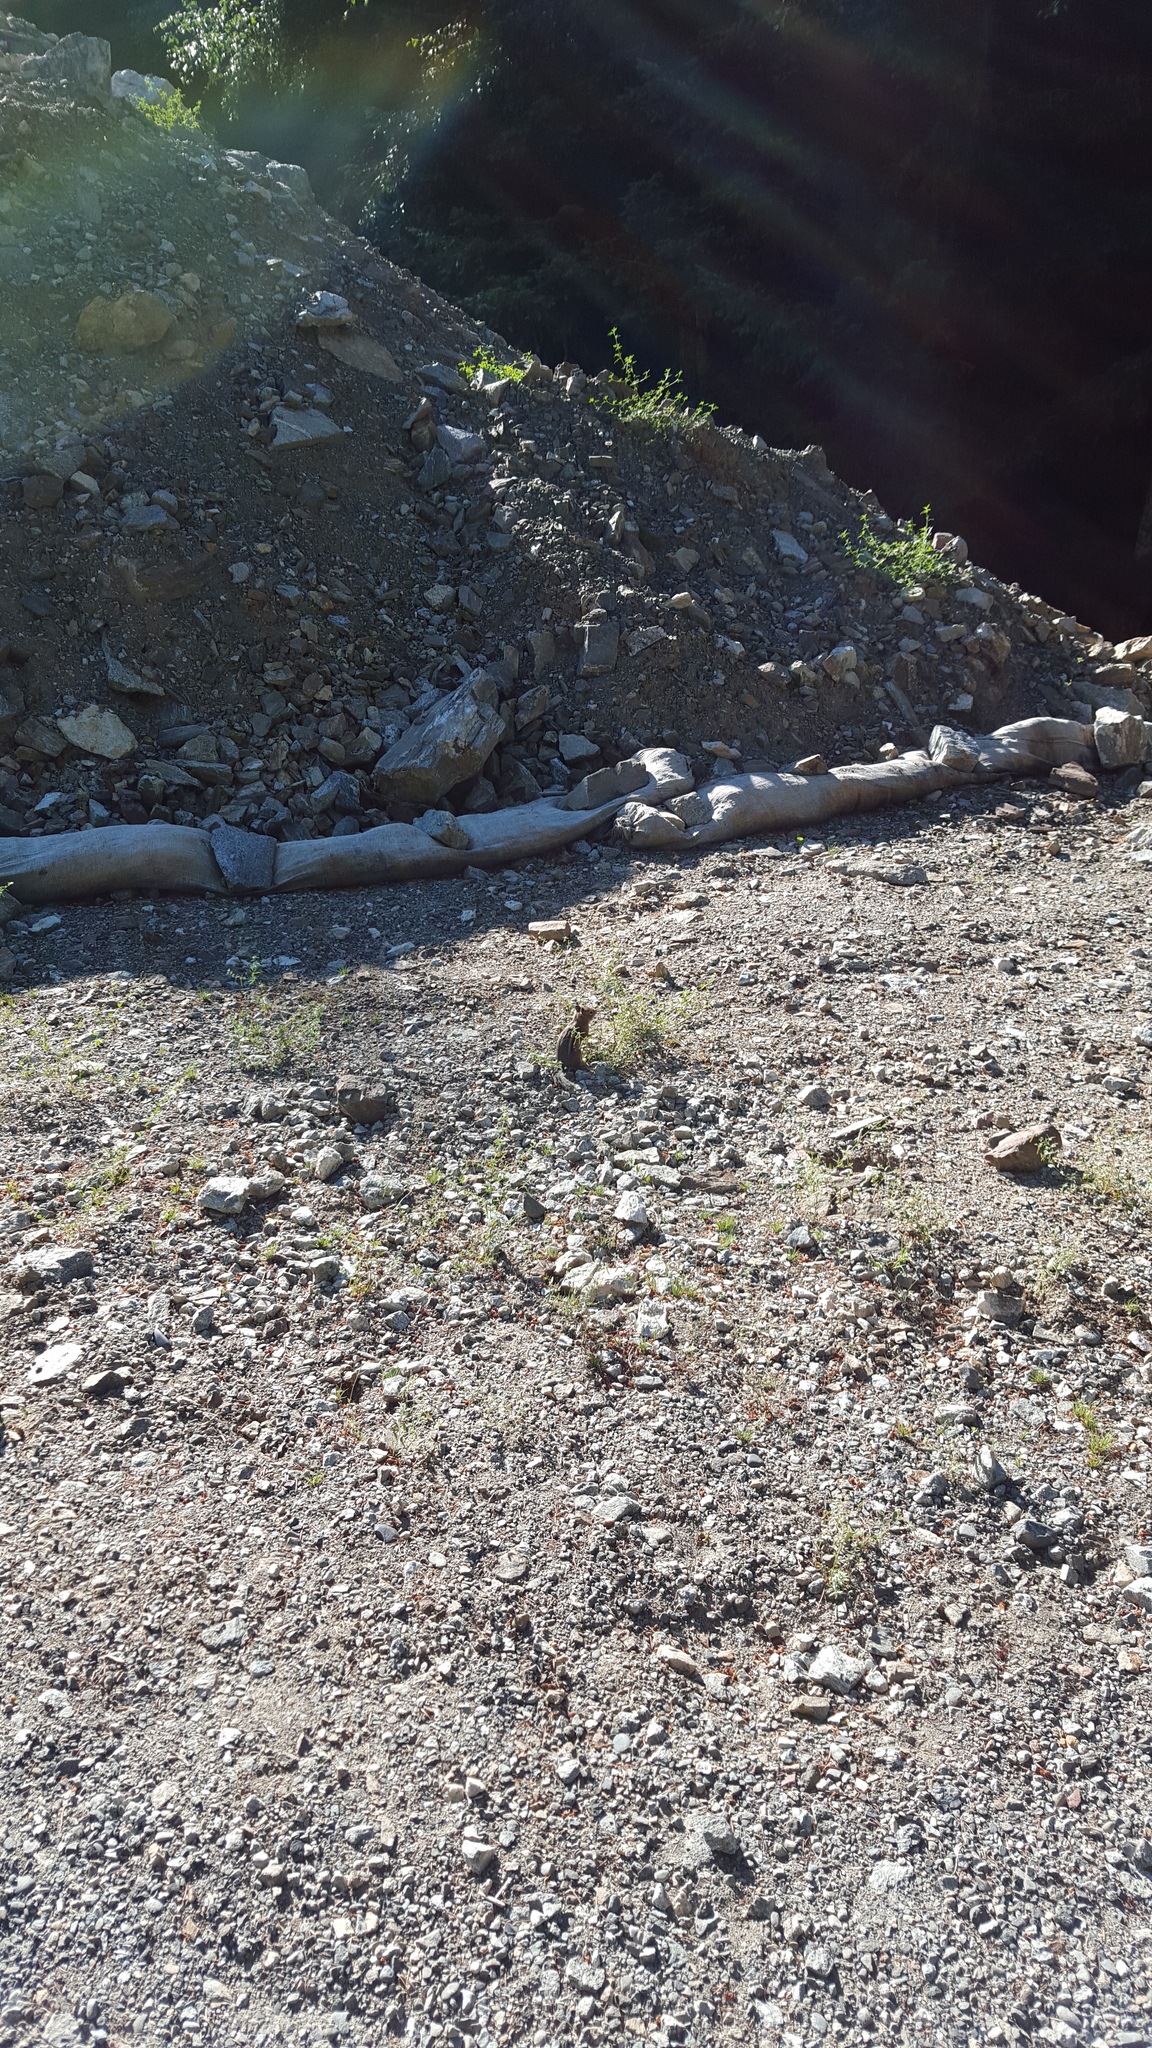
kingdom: Animalia
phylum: Chordata
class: Mammalia
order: Rodentia
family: Sciuridae
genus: Callospermophilus
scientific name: Callospermophilus saturatus
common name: Cascade golden-mantled ground squirrel
